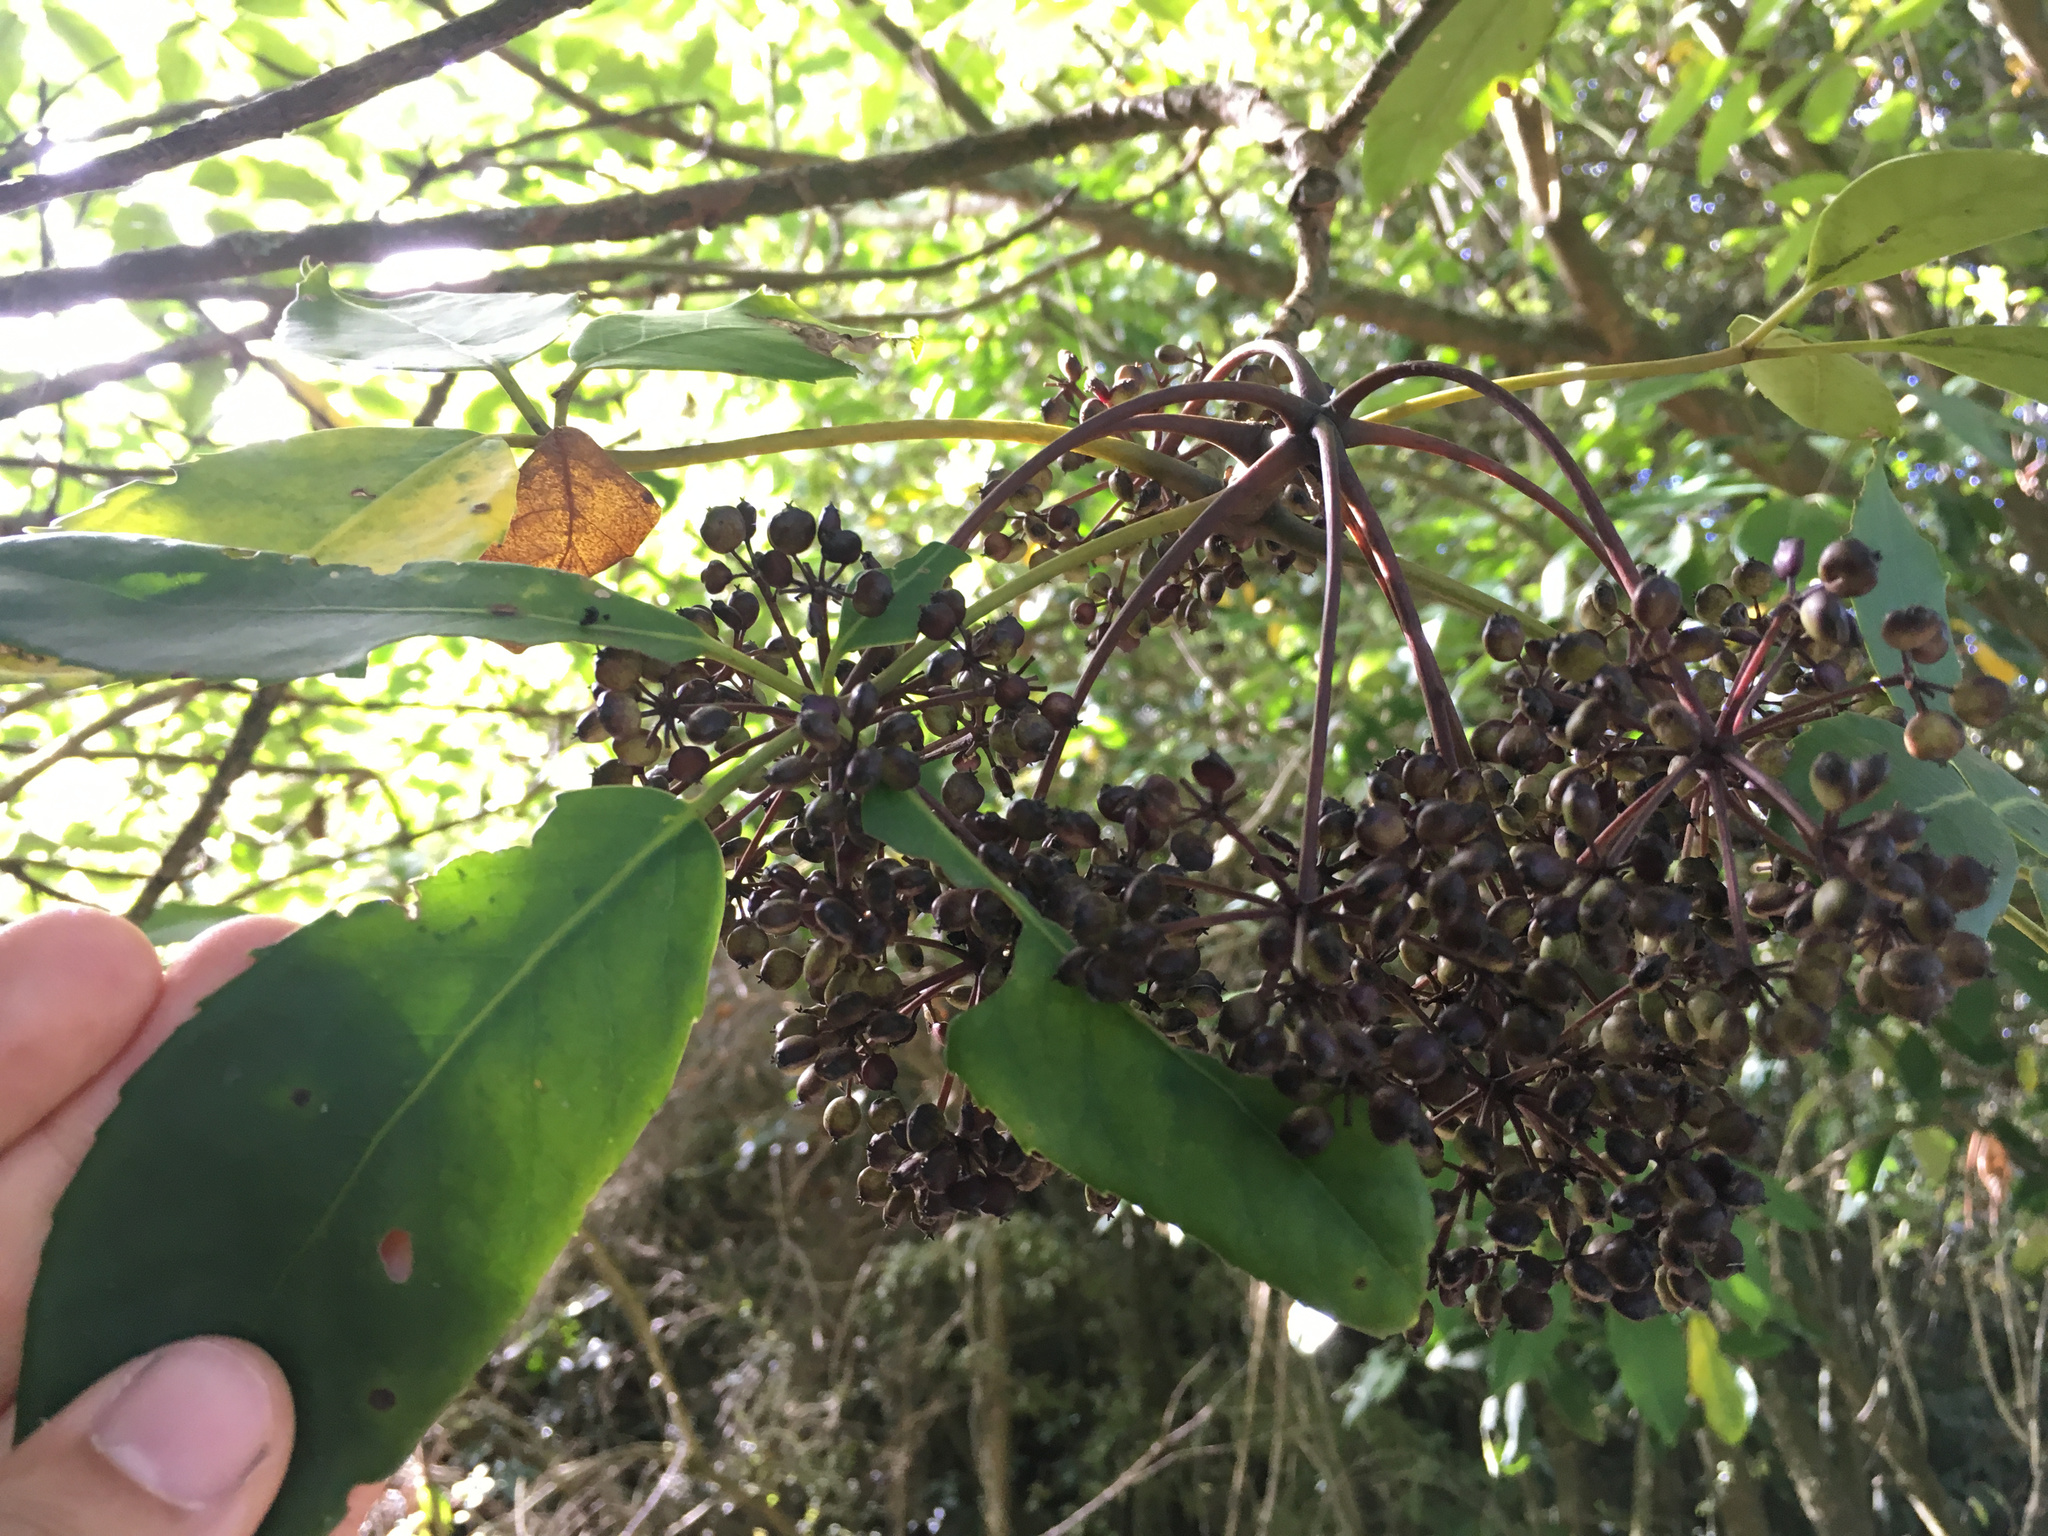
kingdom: Plantae
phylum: Tracheophyta
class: Magnoliopsida
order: Apiales
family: Araliaceae
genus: Neopanax
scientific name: Neopanax arboreus
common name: Five-fingers
